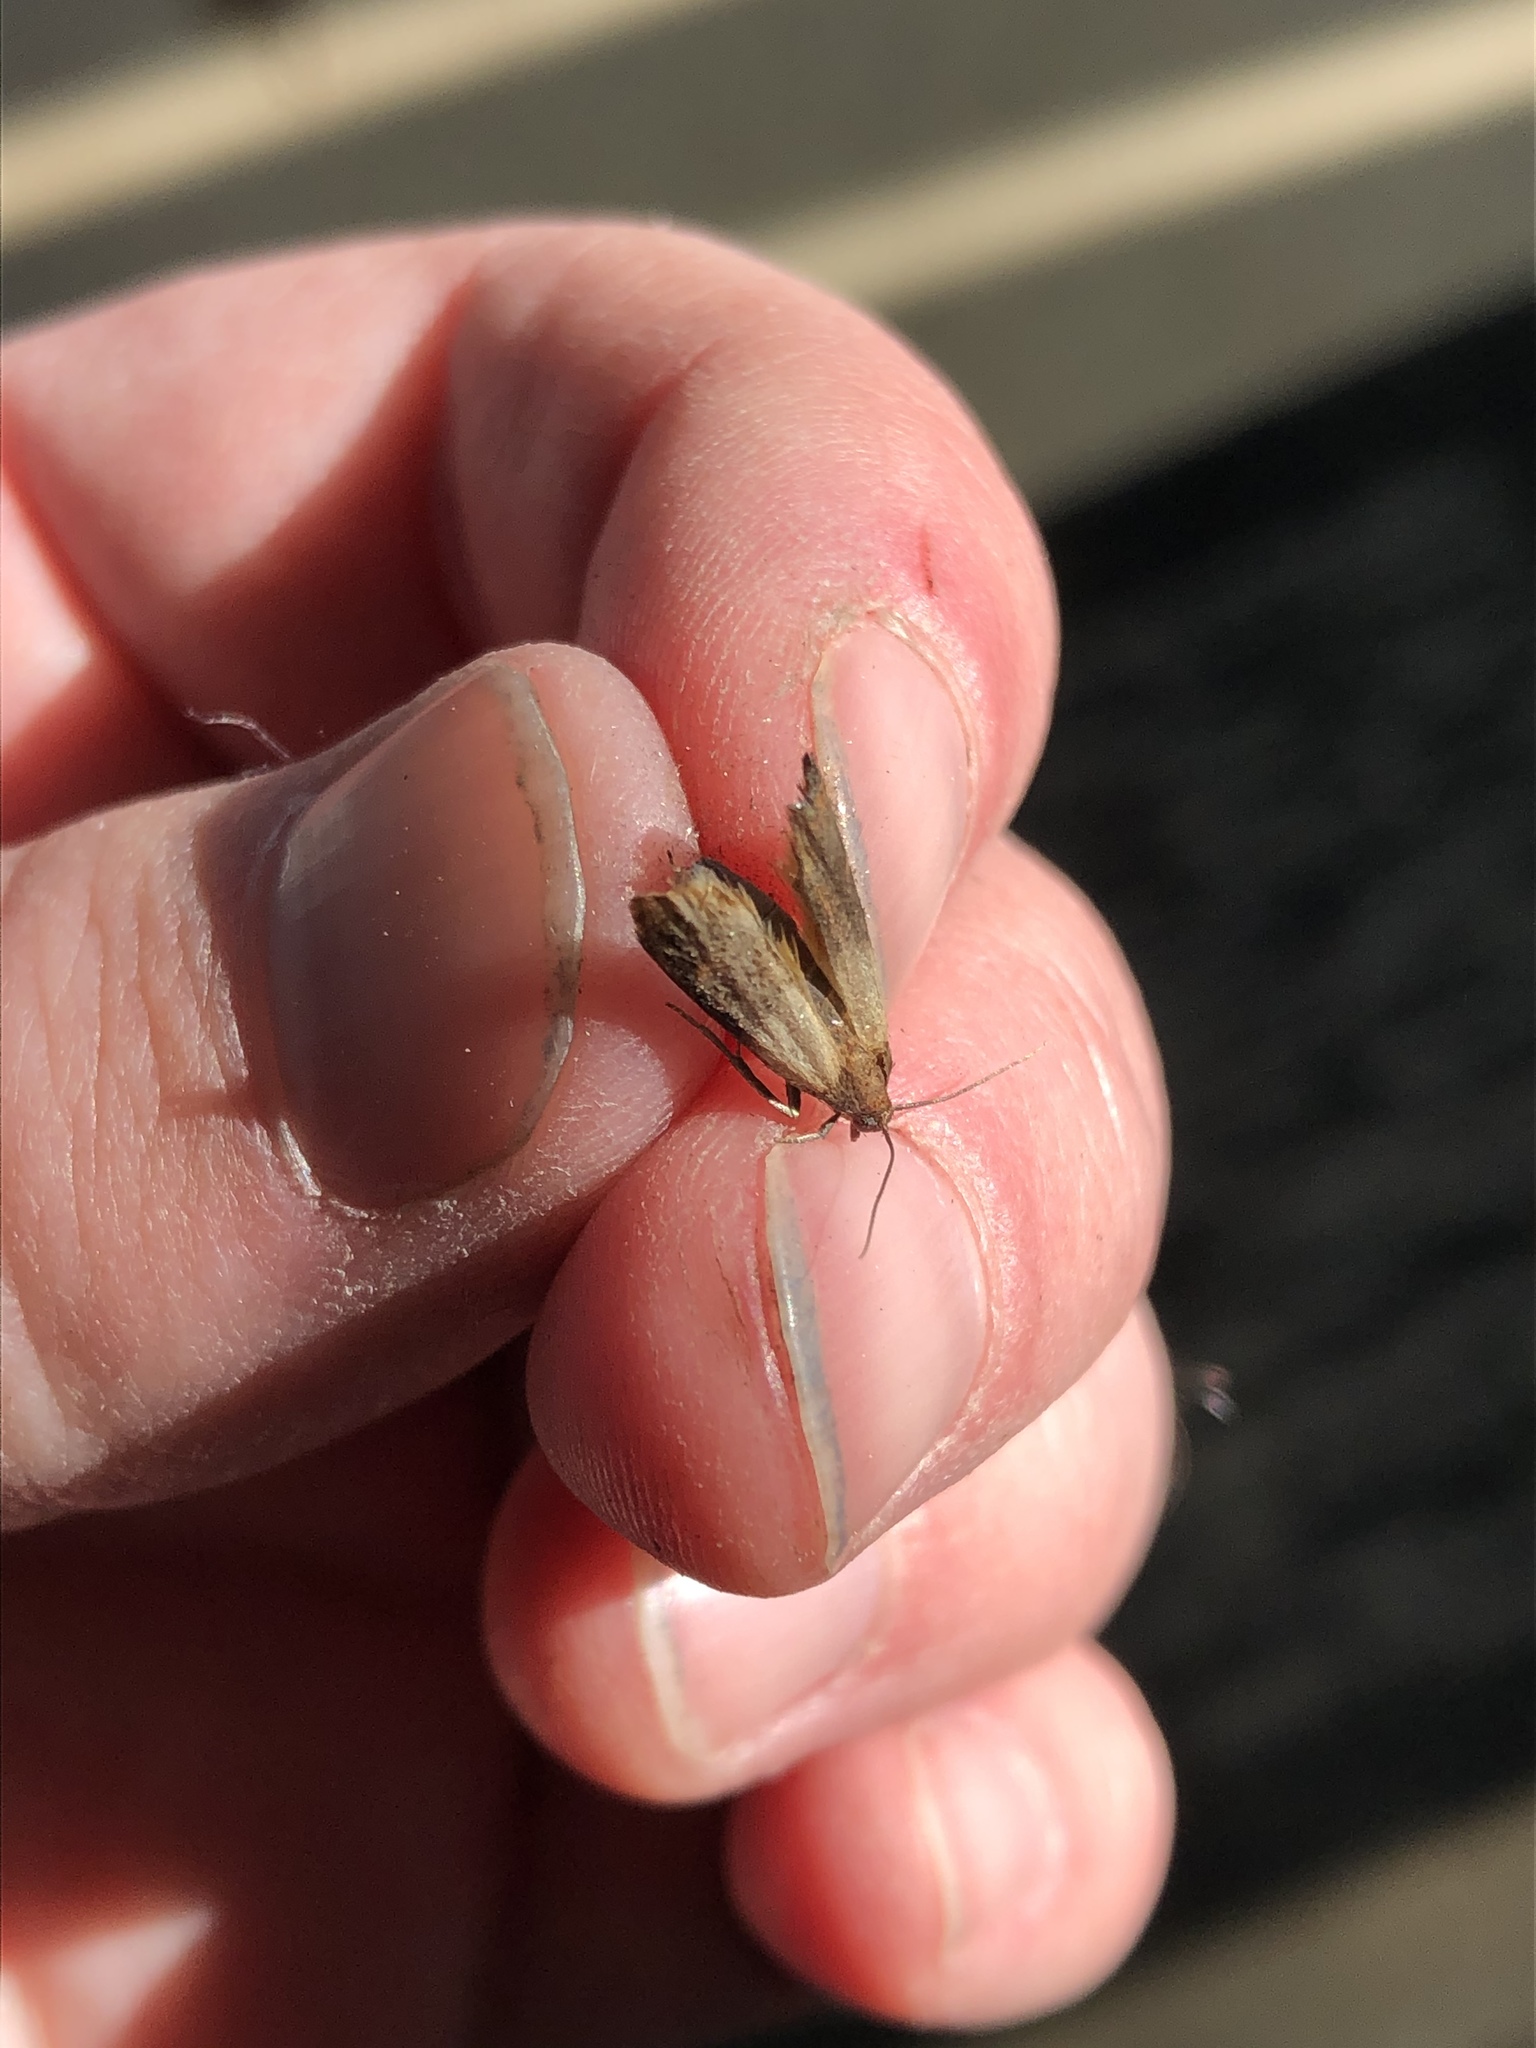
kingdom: Animalia
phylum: Arthropoda
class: Insecta
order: Lepidoptera
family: Pyralidae
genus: Plodia
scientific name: Plodia interpunctella
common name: Indian meal moth
